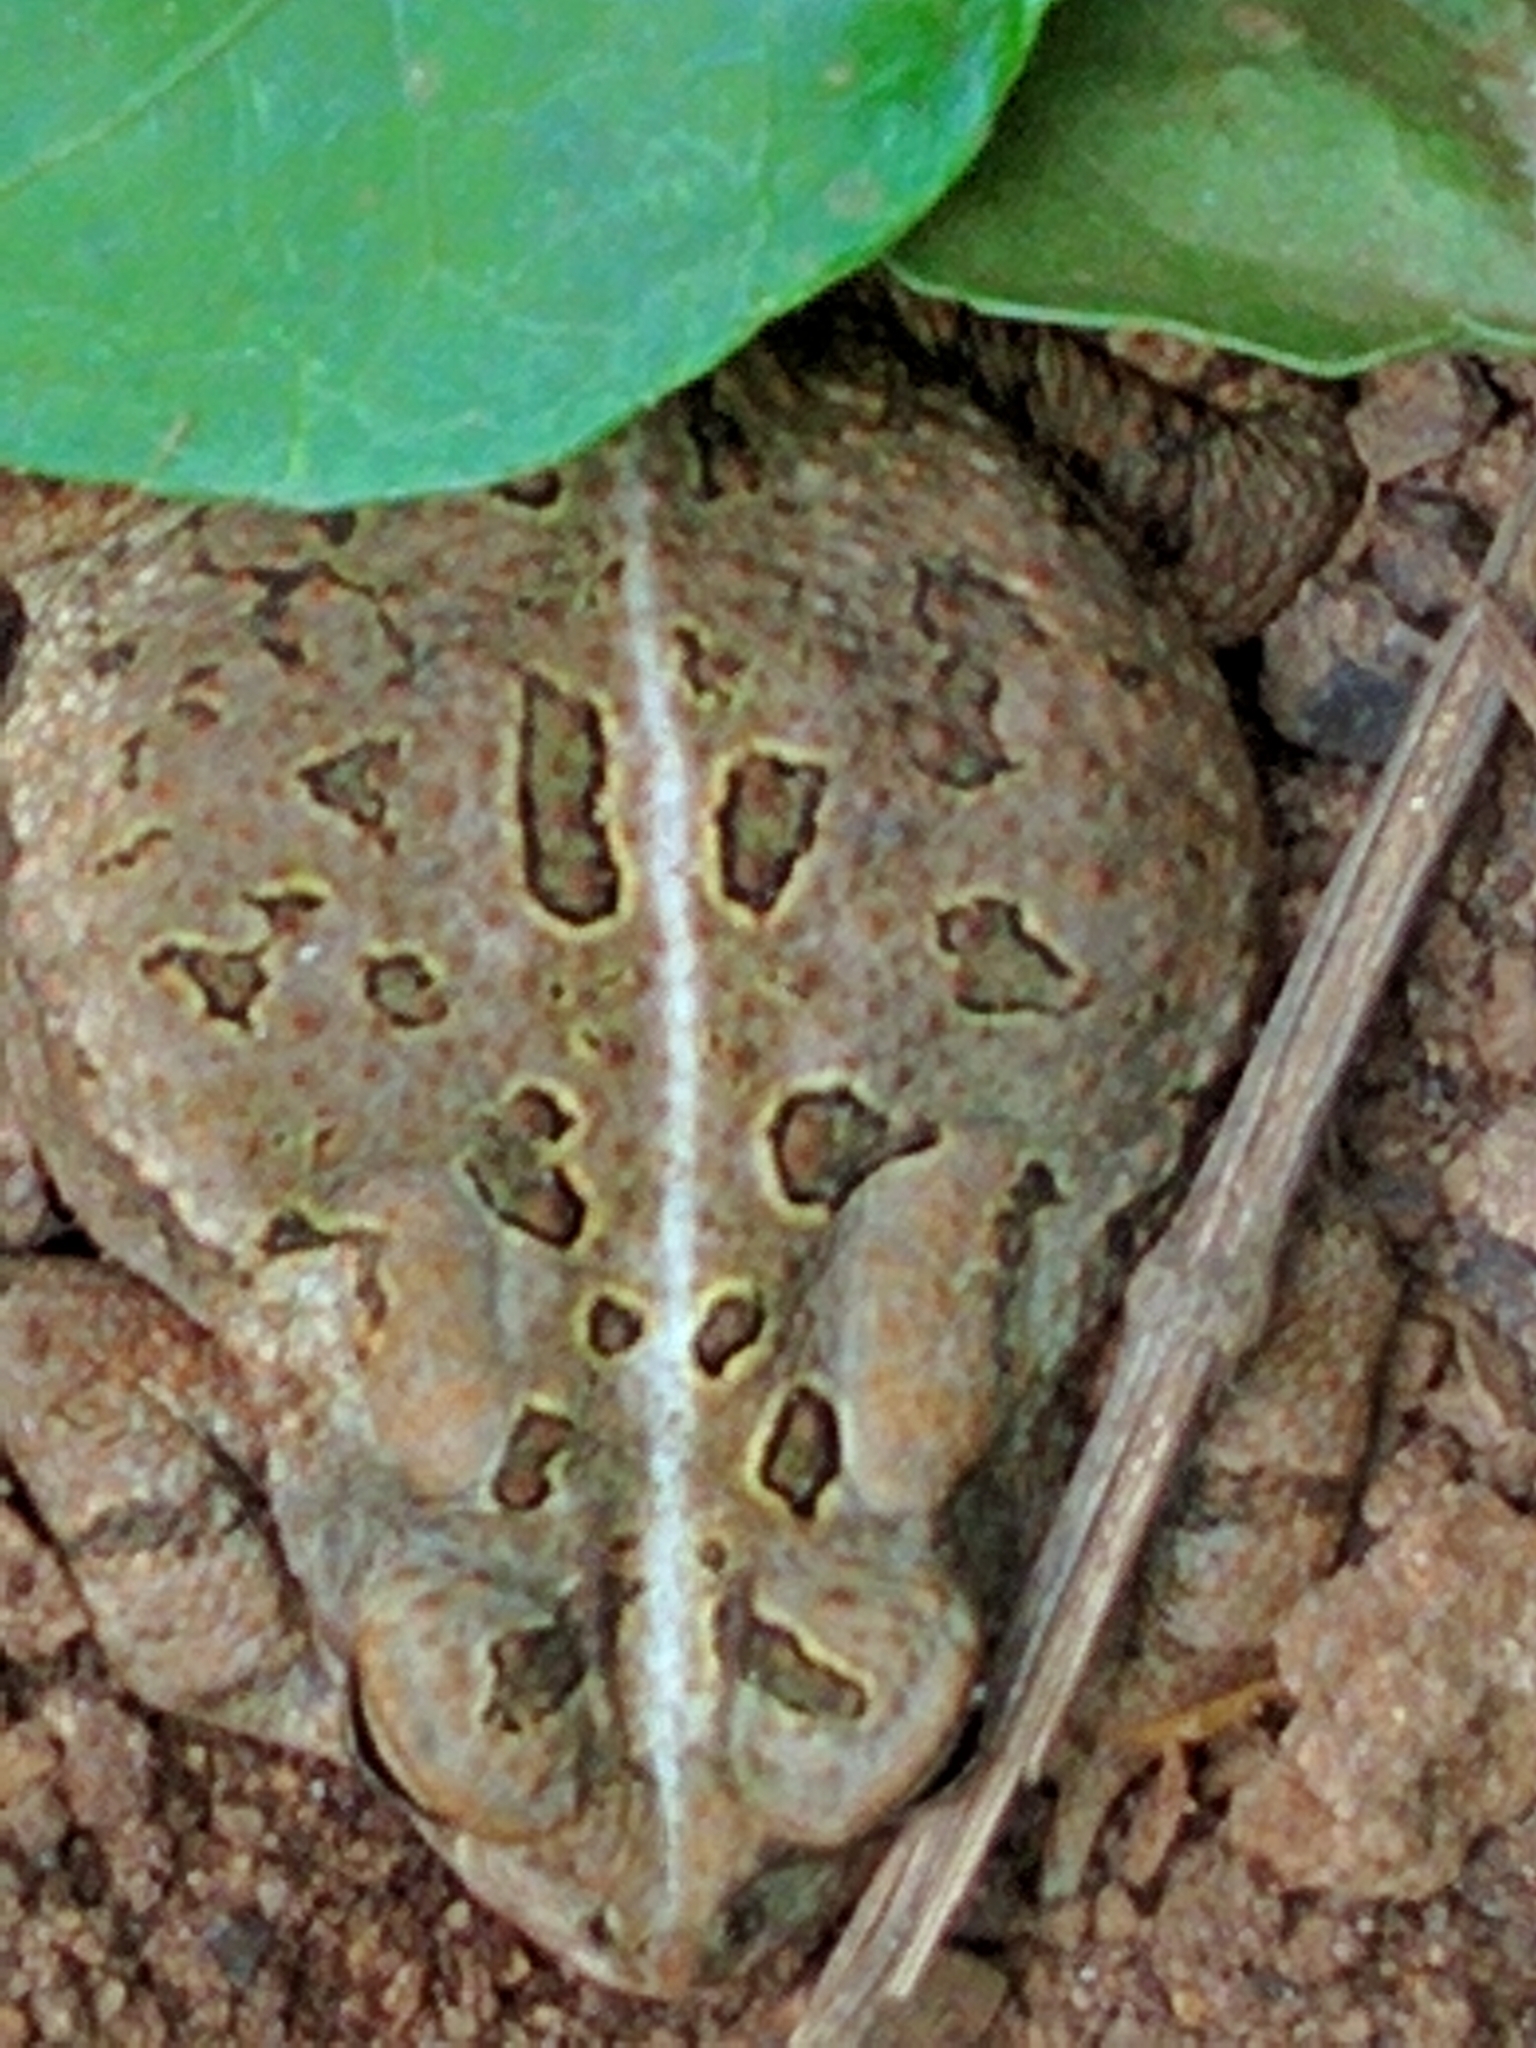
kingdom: Animalia
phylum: Chordata
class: Amphibia
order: Anura
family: Bufonidae
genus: Anaxyrus
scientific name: Anaxyrus fowleri
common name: Fowler's toad
